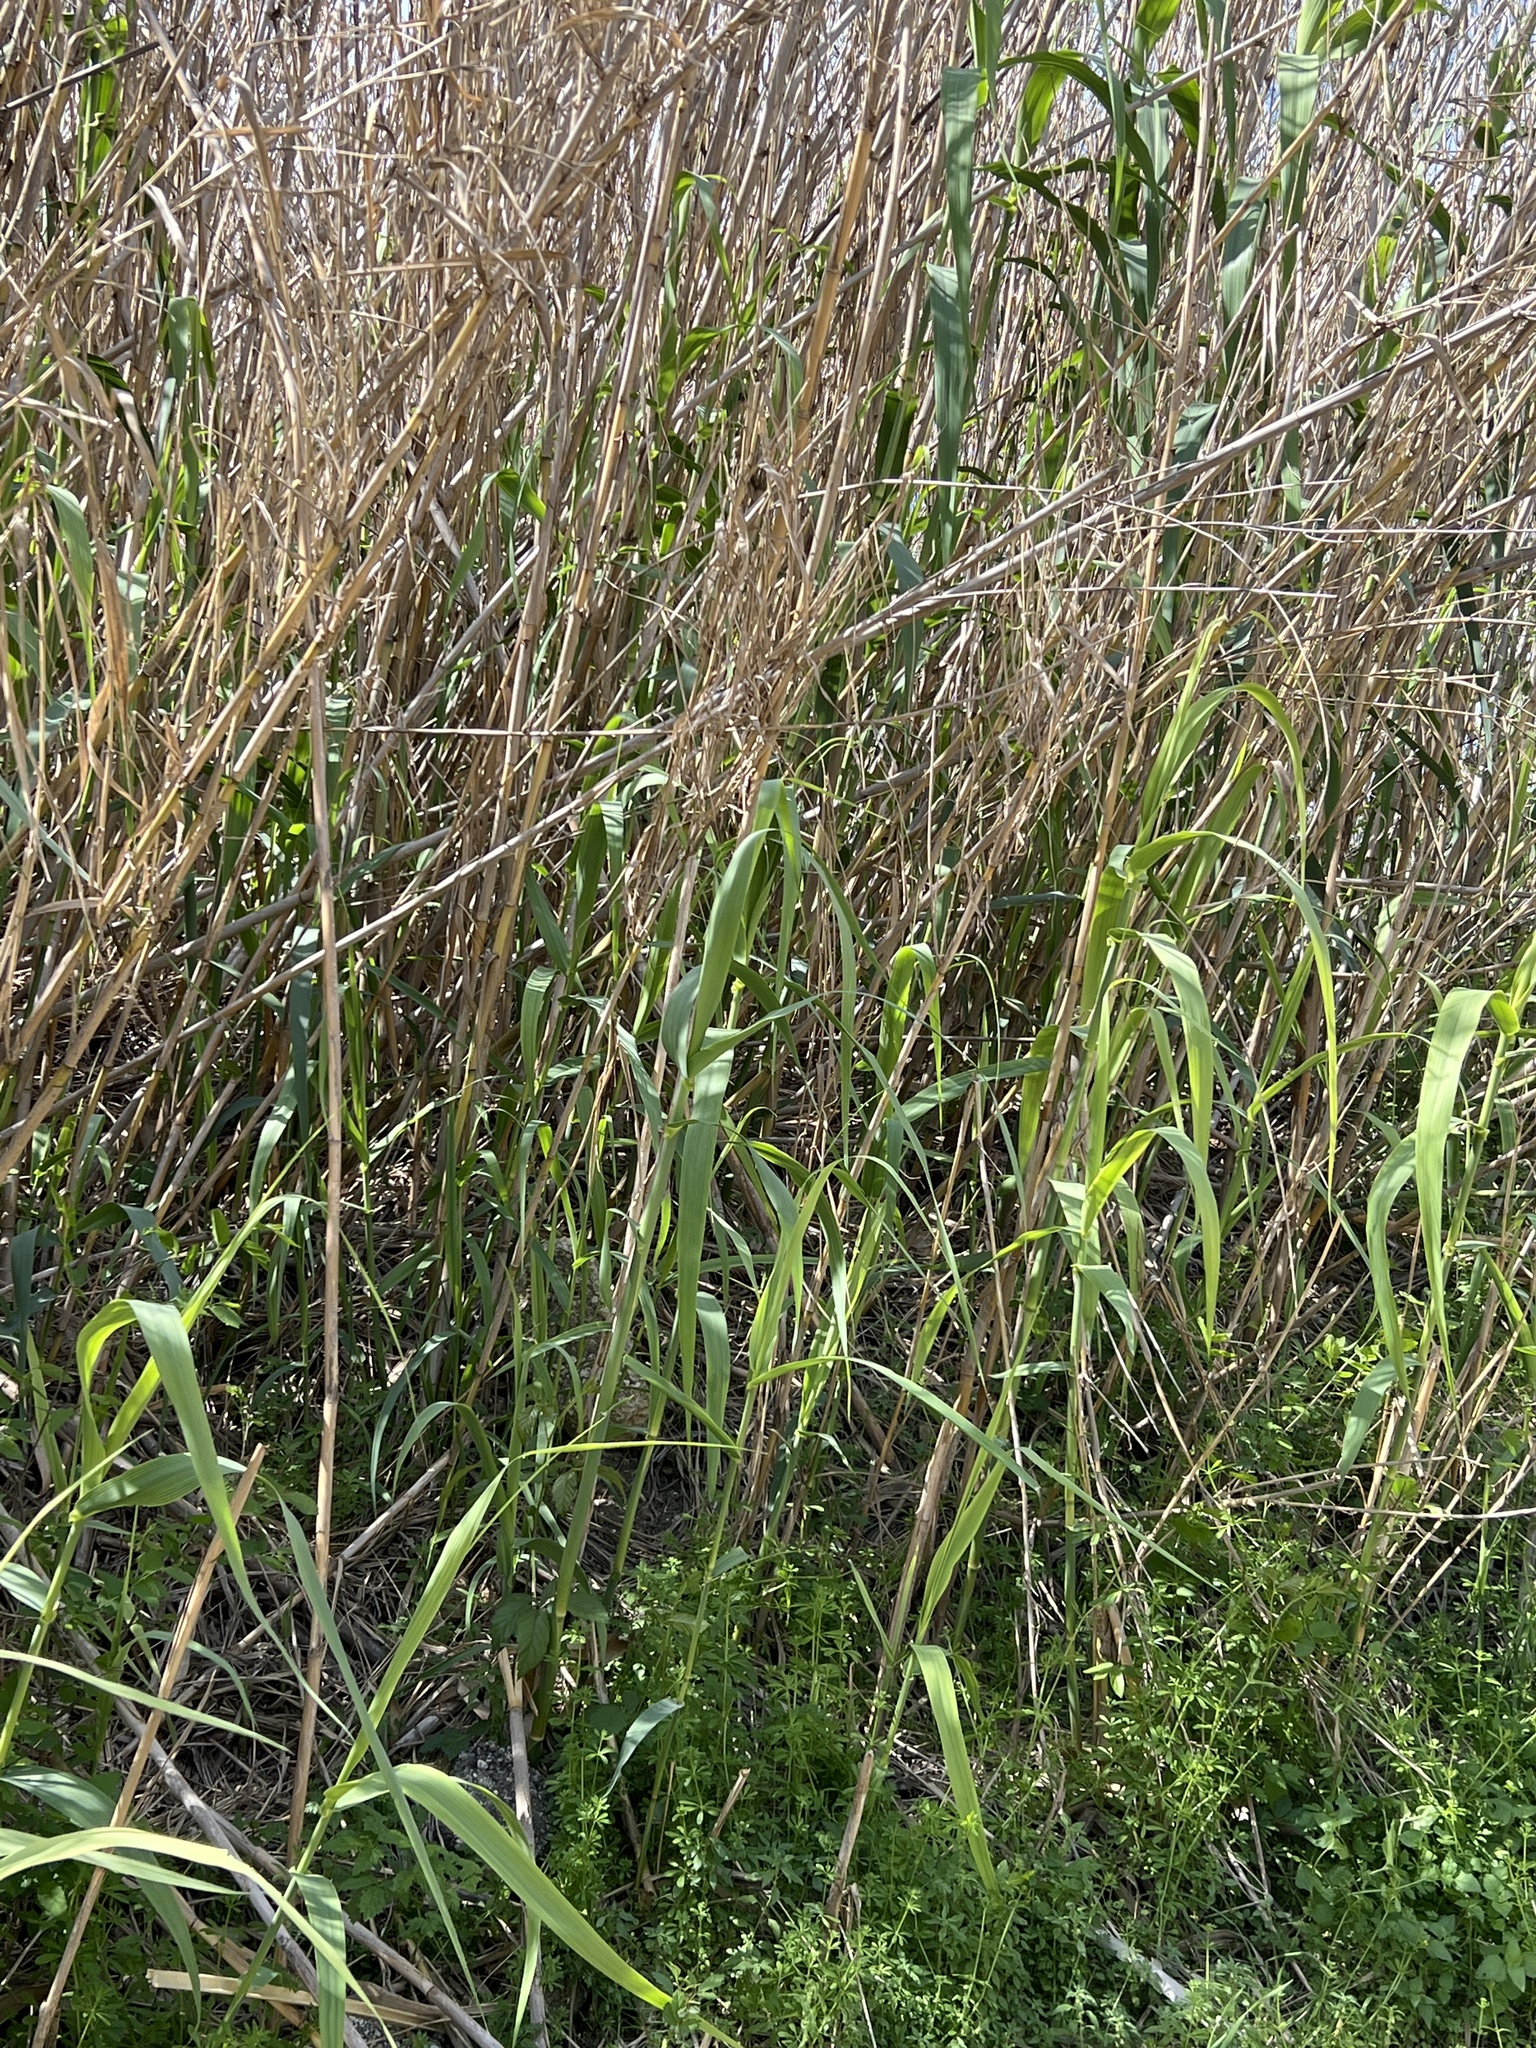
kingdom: Plantae
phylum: Tracheophyta
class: Liliopsida
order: Poales
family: Poaceae
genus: Arundo
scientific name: Arundo donax
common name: Giant reed
